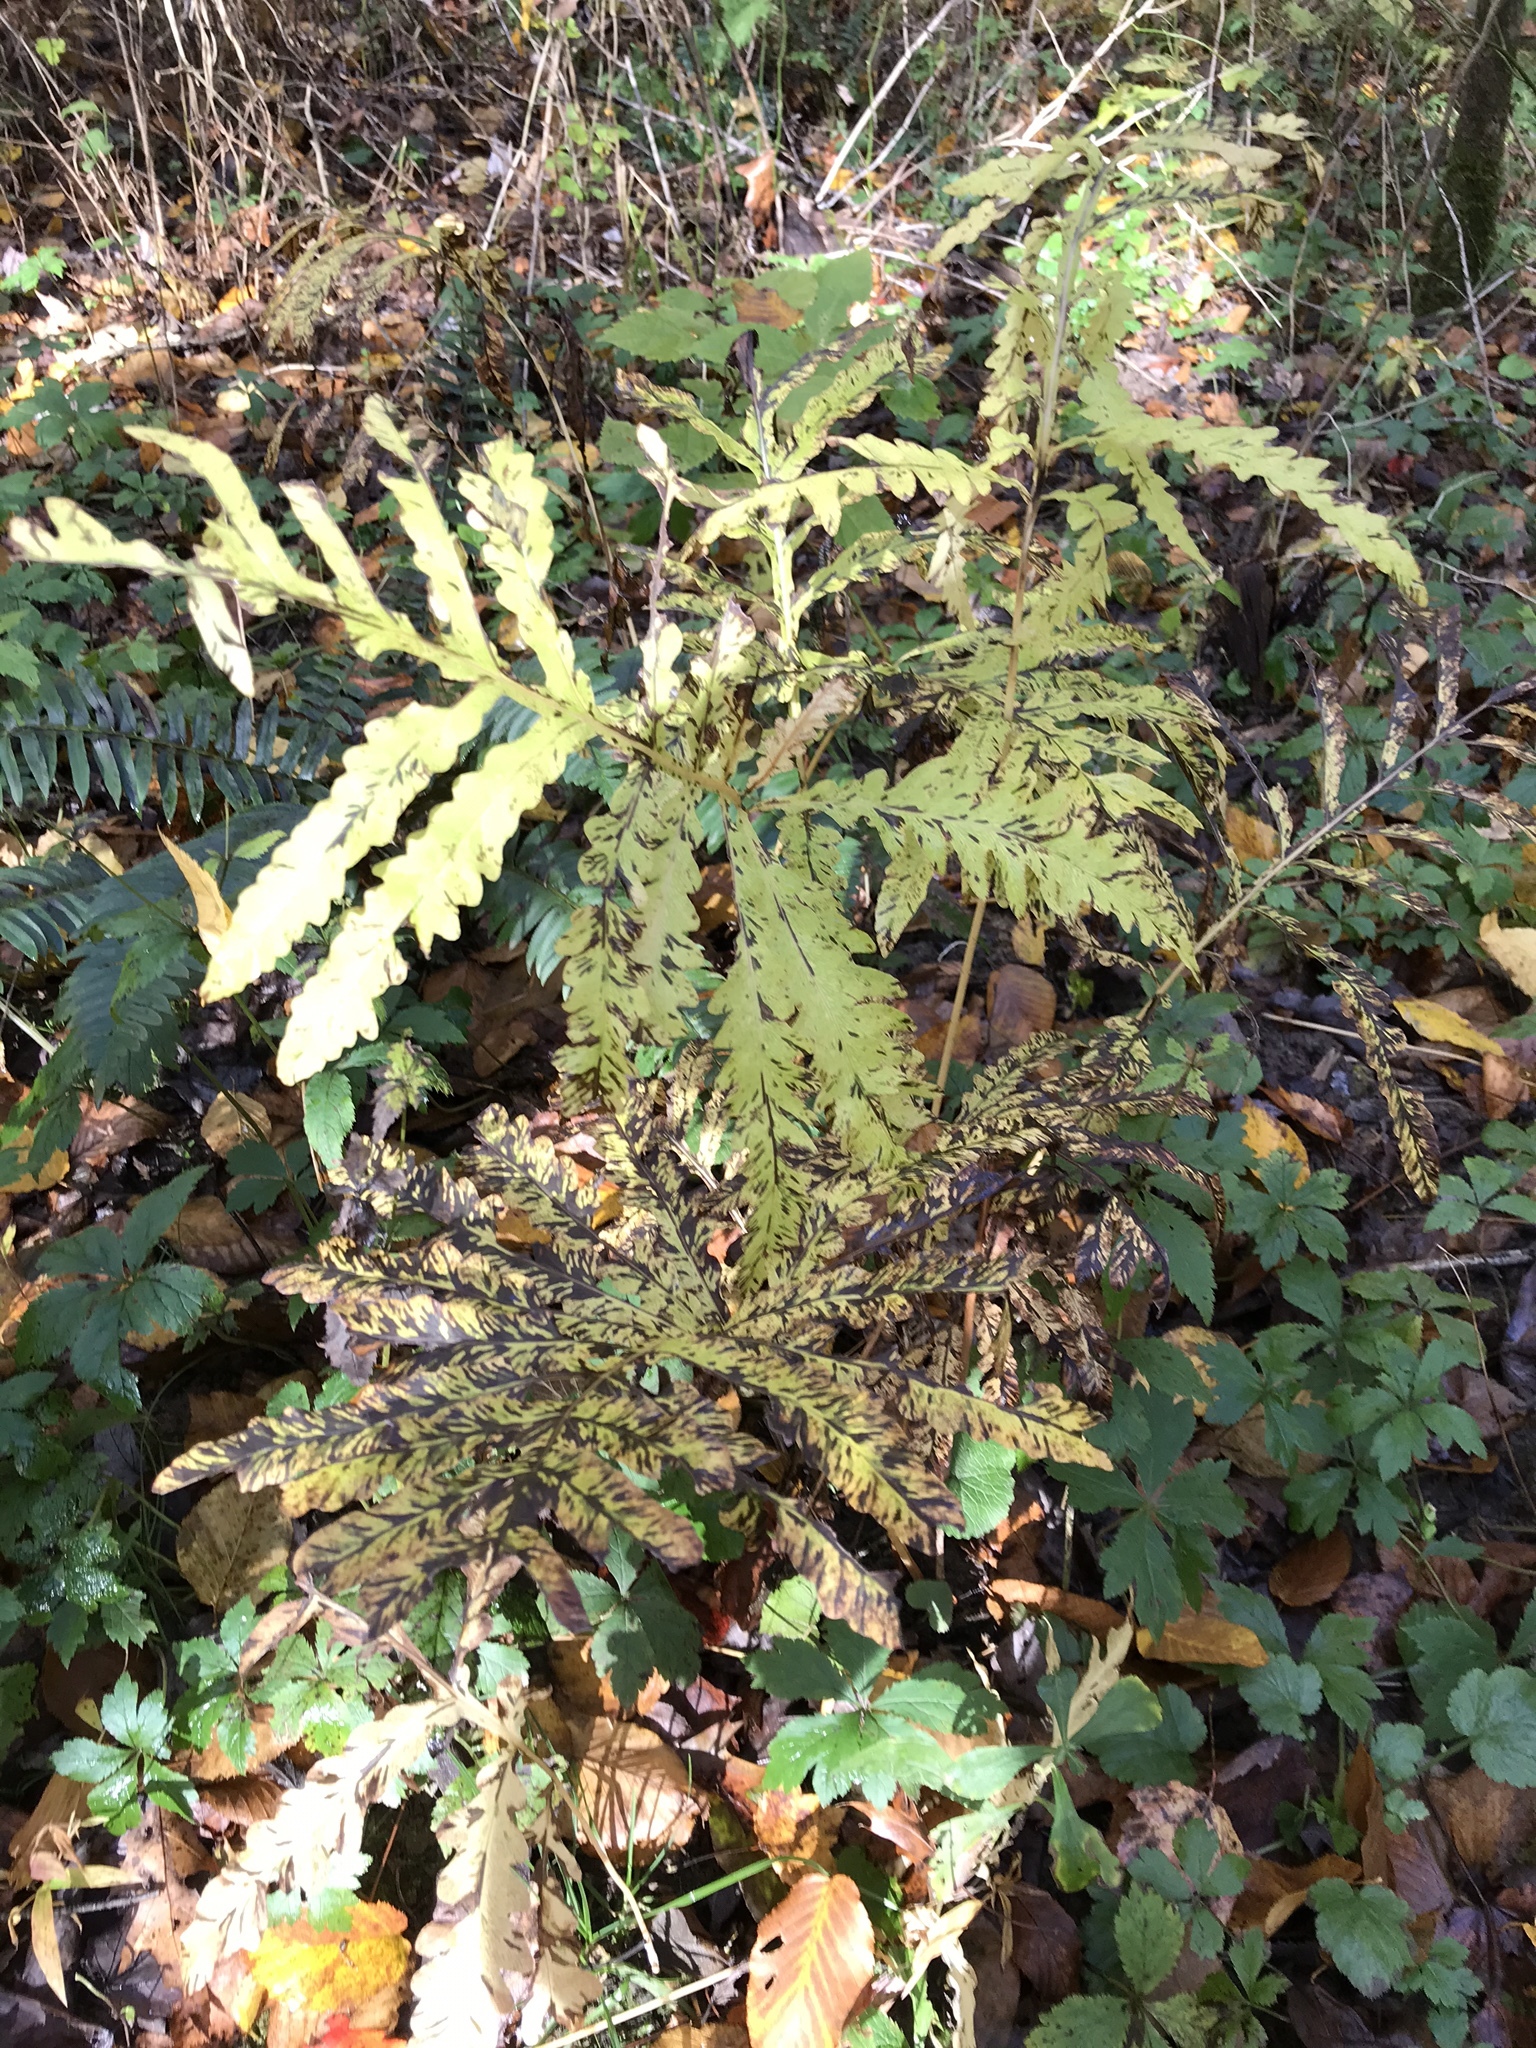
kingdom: Plantae
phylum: Tracheophyta
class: Polypodiopsida
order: Polypodiales
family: Onocleaceae
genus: Onoclea
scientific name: Onoclea sensibilis
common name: Sensitive fern
